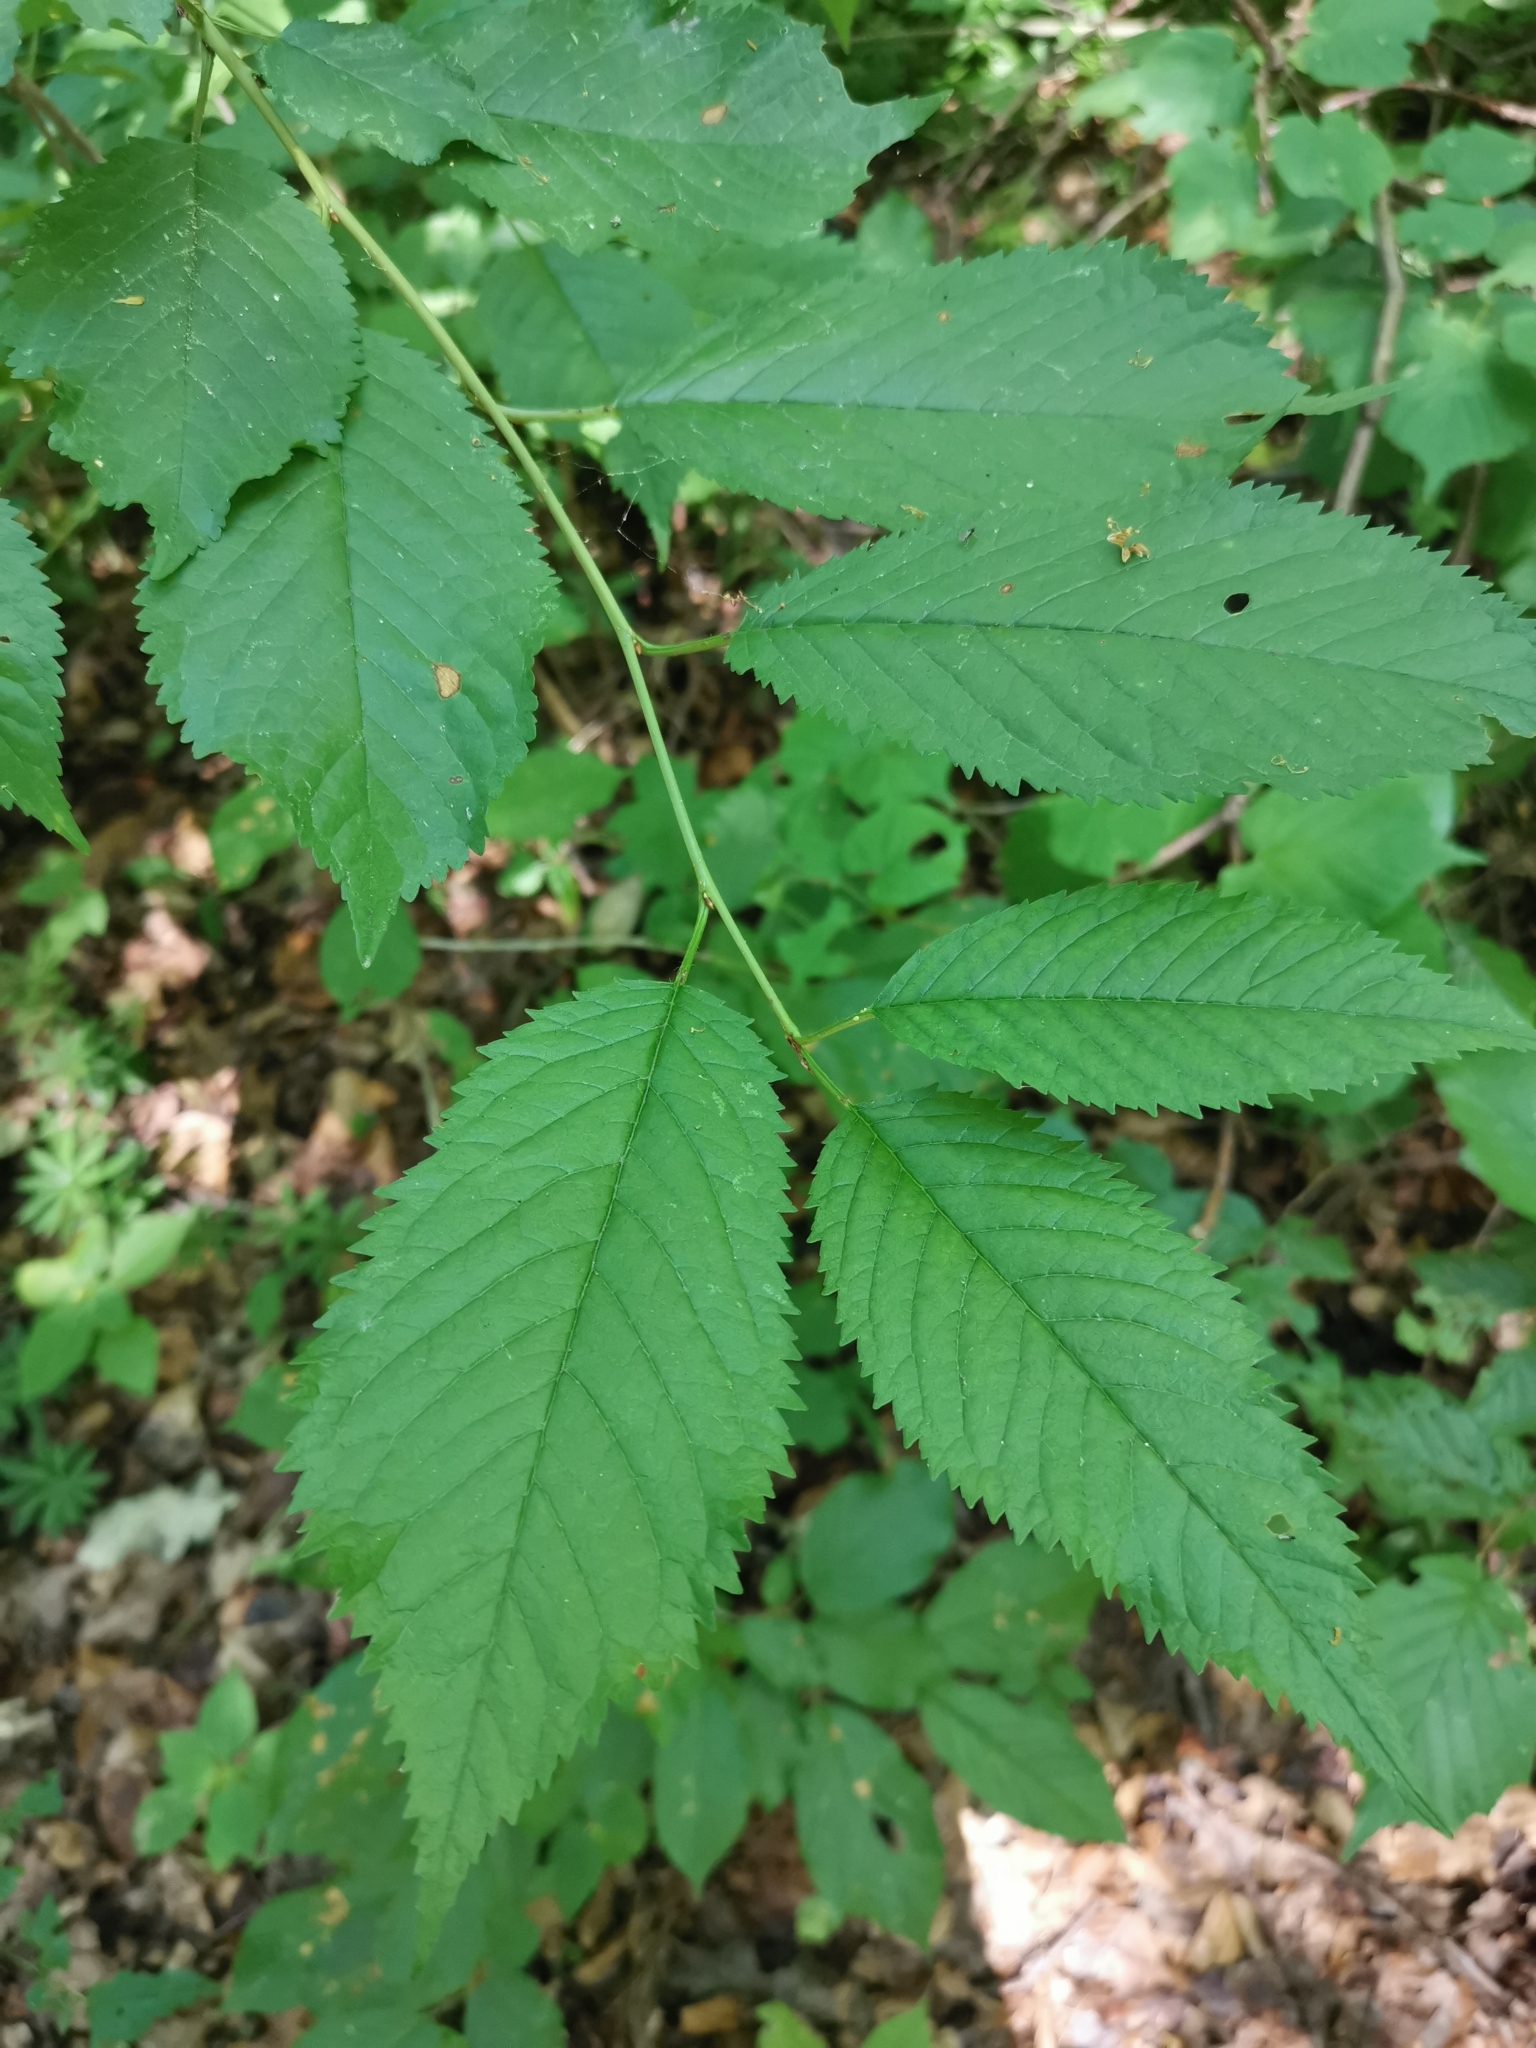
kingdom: Plantae
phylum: Tracheophyta
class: Magnoliopsida
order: Rosales
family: Rosaceae
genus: Prunus
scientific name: Prunus avium
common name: Sweet cherry
